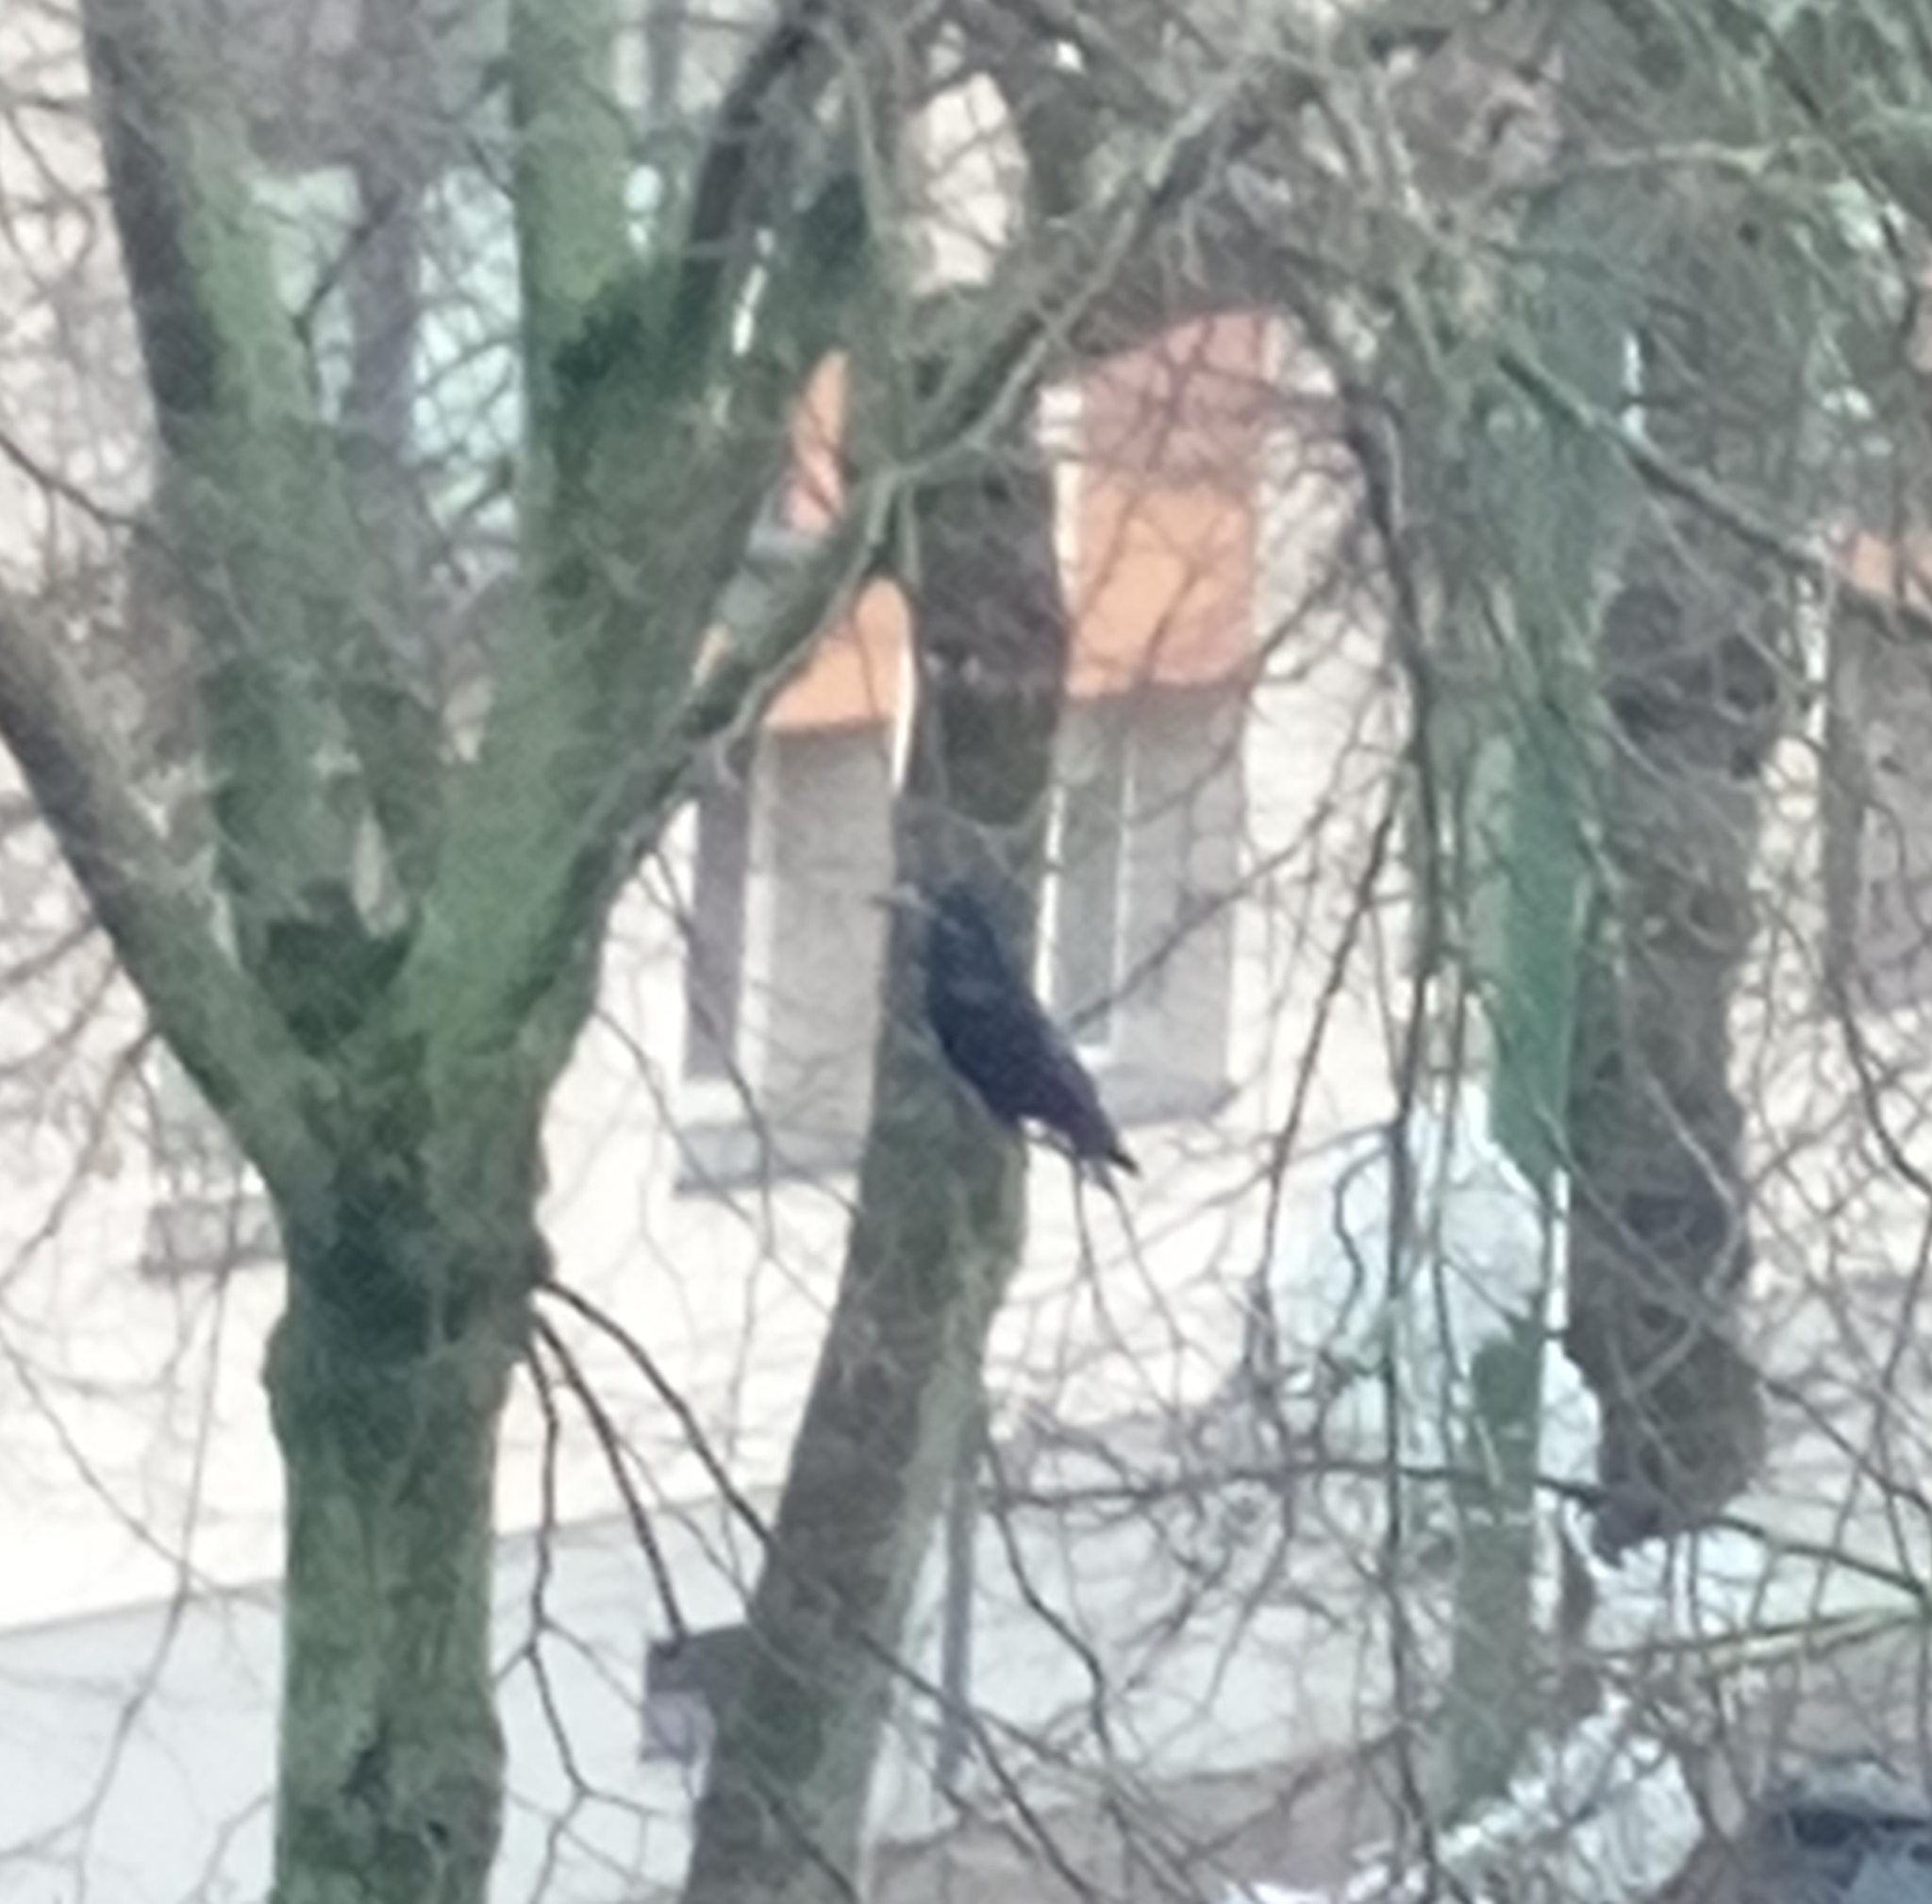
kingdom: Animalia
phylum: Chordata
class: Aves
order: Passeriformes
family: Corvidae
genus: Corvus
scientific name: Corvus frugilegus
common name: Rook
